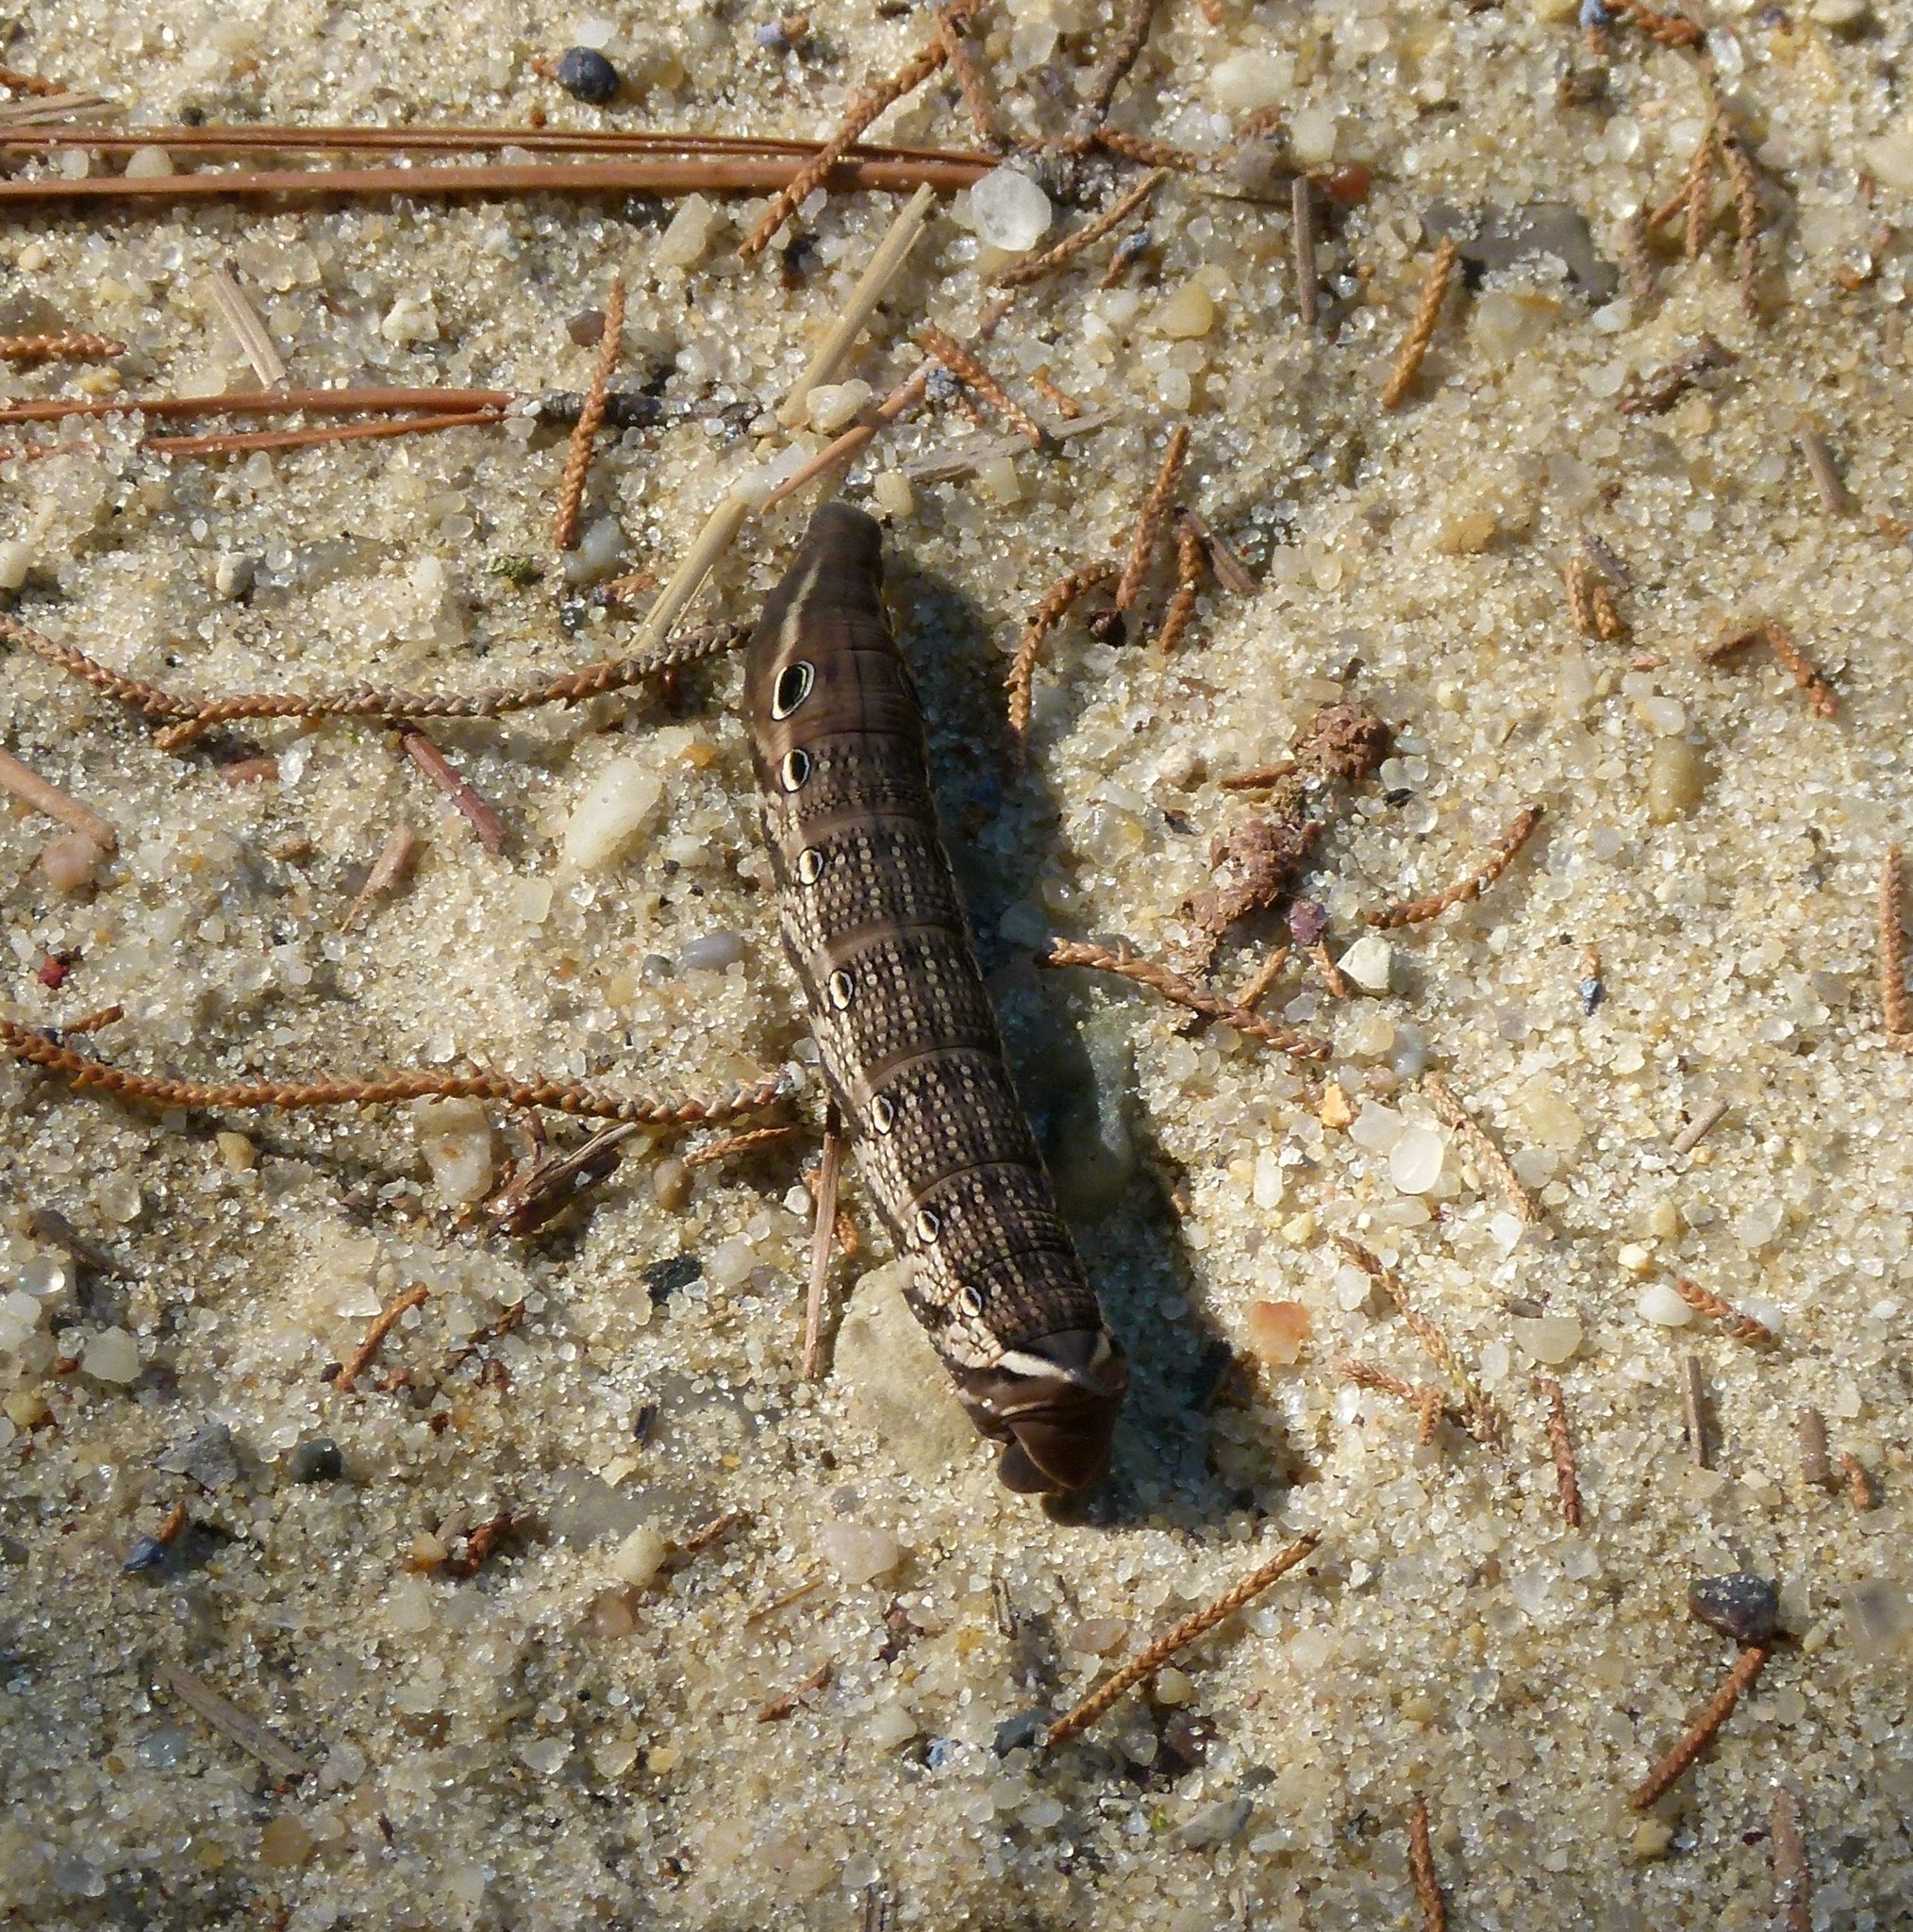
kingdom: Animalia
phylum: Arthropoda
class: Insecta
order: Lepidoptera
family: Sphingidae
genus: Xylophanes
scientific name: Xylophanes tersa
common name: Tersa sphinx
